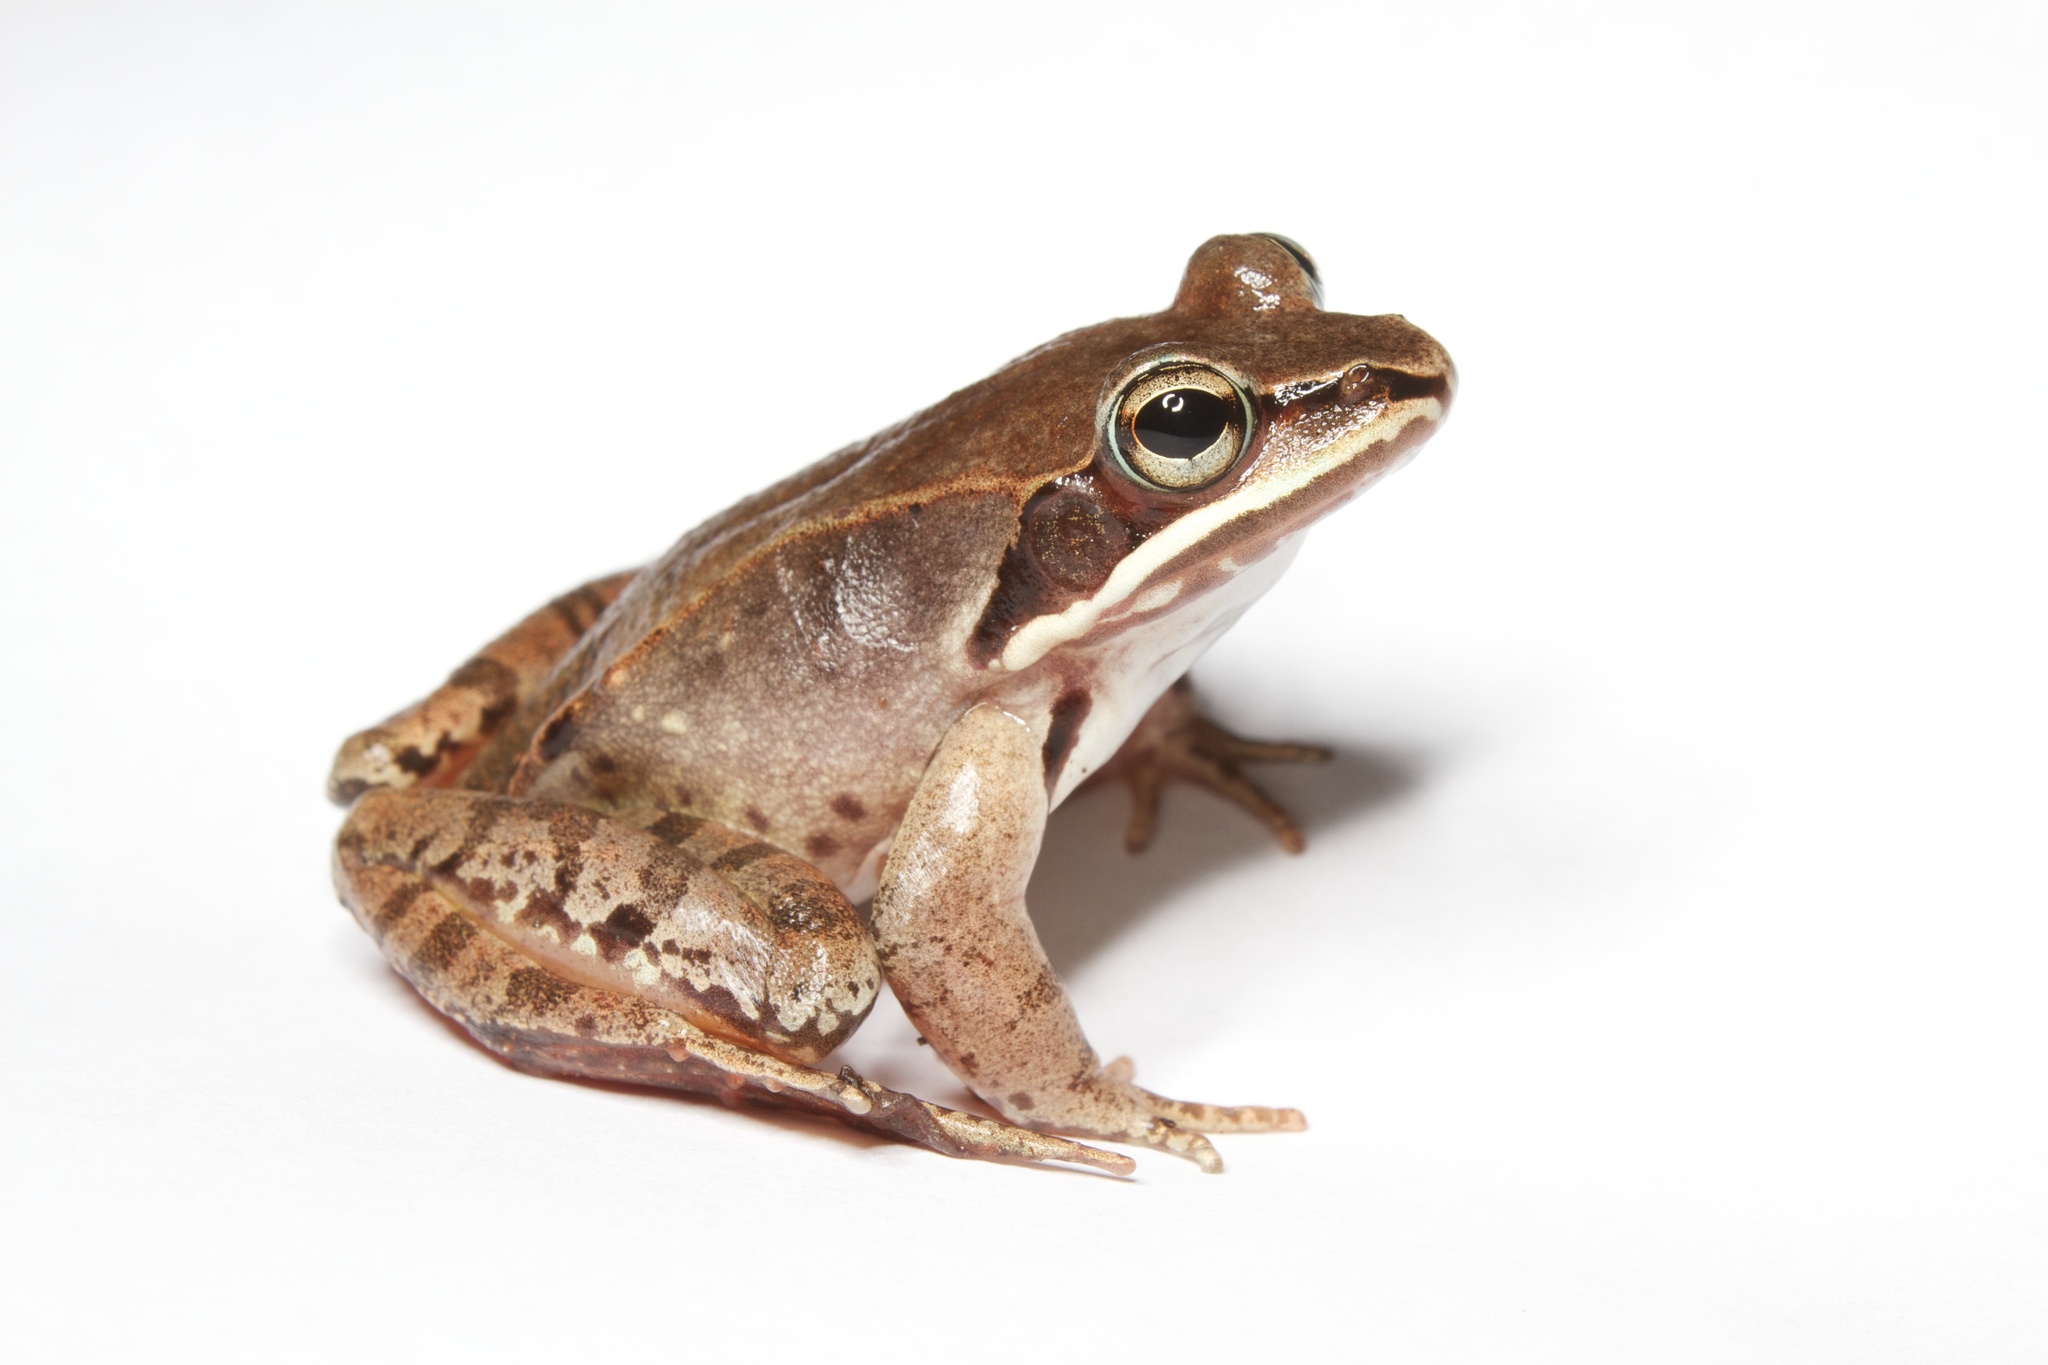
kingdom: Animalia
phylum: Chordata
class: Amphibia
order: Anura
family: Ranidae
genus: Lithobates
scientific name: Lithobates sylvaticus
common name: Wood frog
